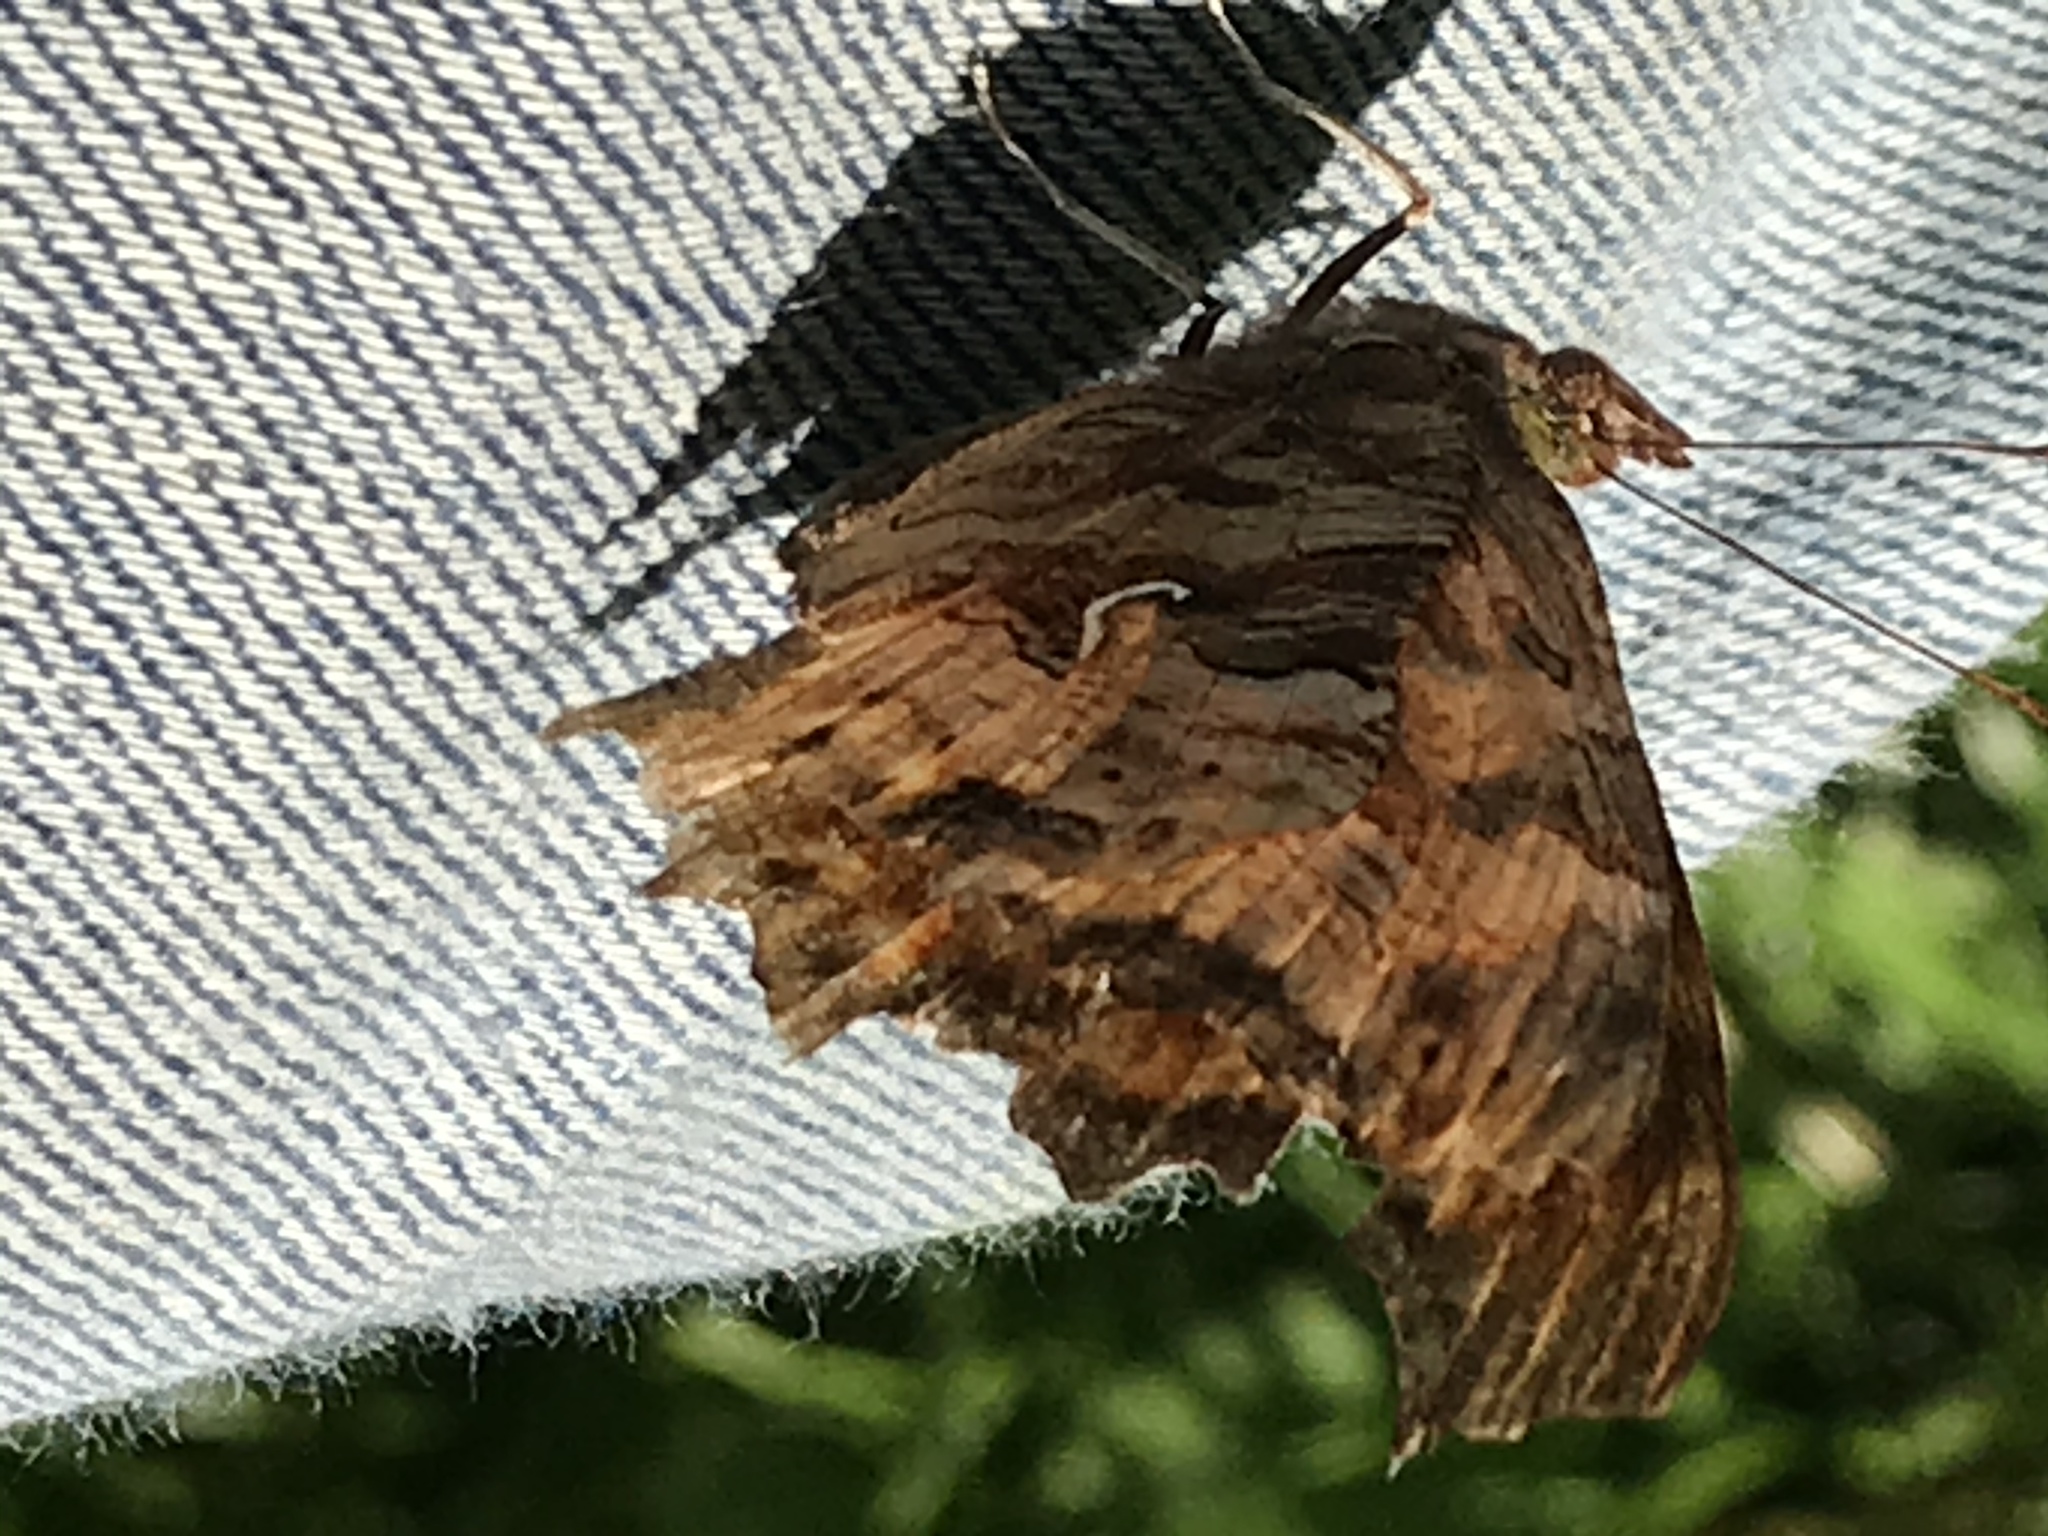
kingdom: Animalia
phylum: Arthropoda
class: Insecta
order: Lepidoptera
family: Nymphalidae
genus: Polygonia
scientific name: Polygonia satyrus
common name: Satyr angle wing
